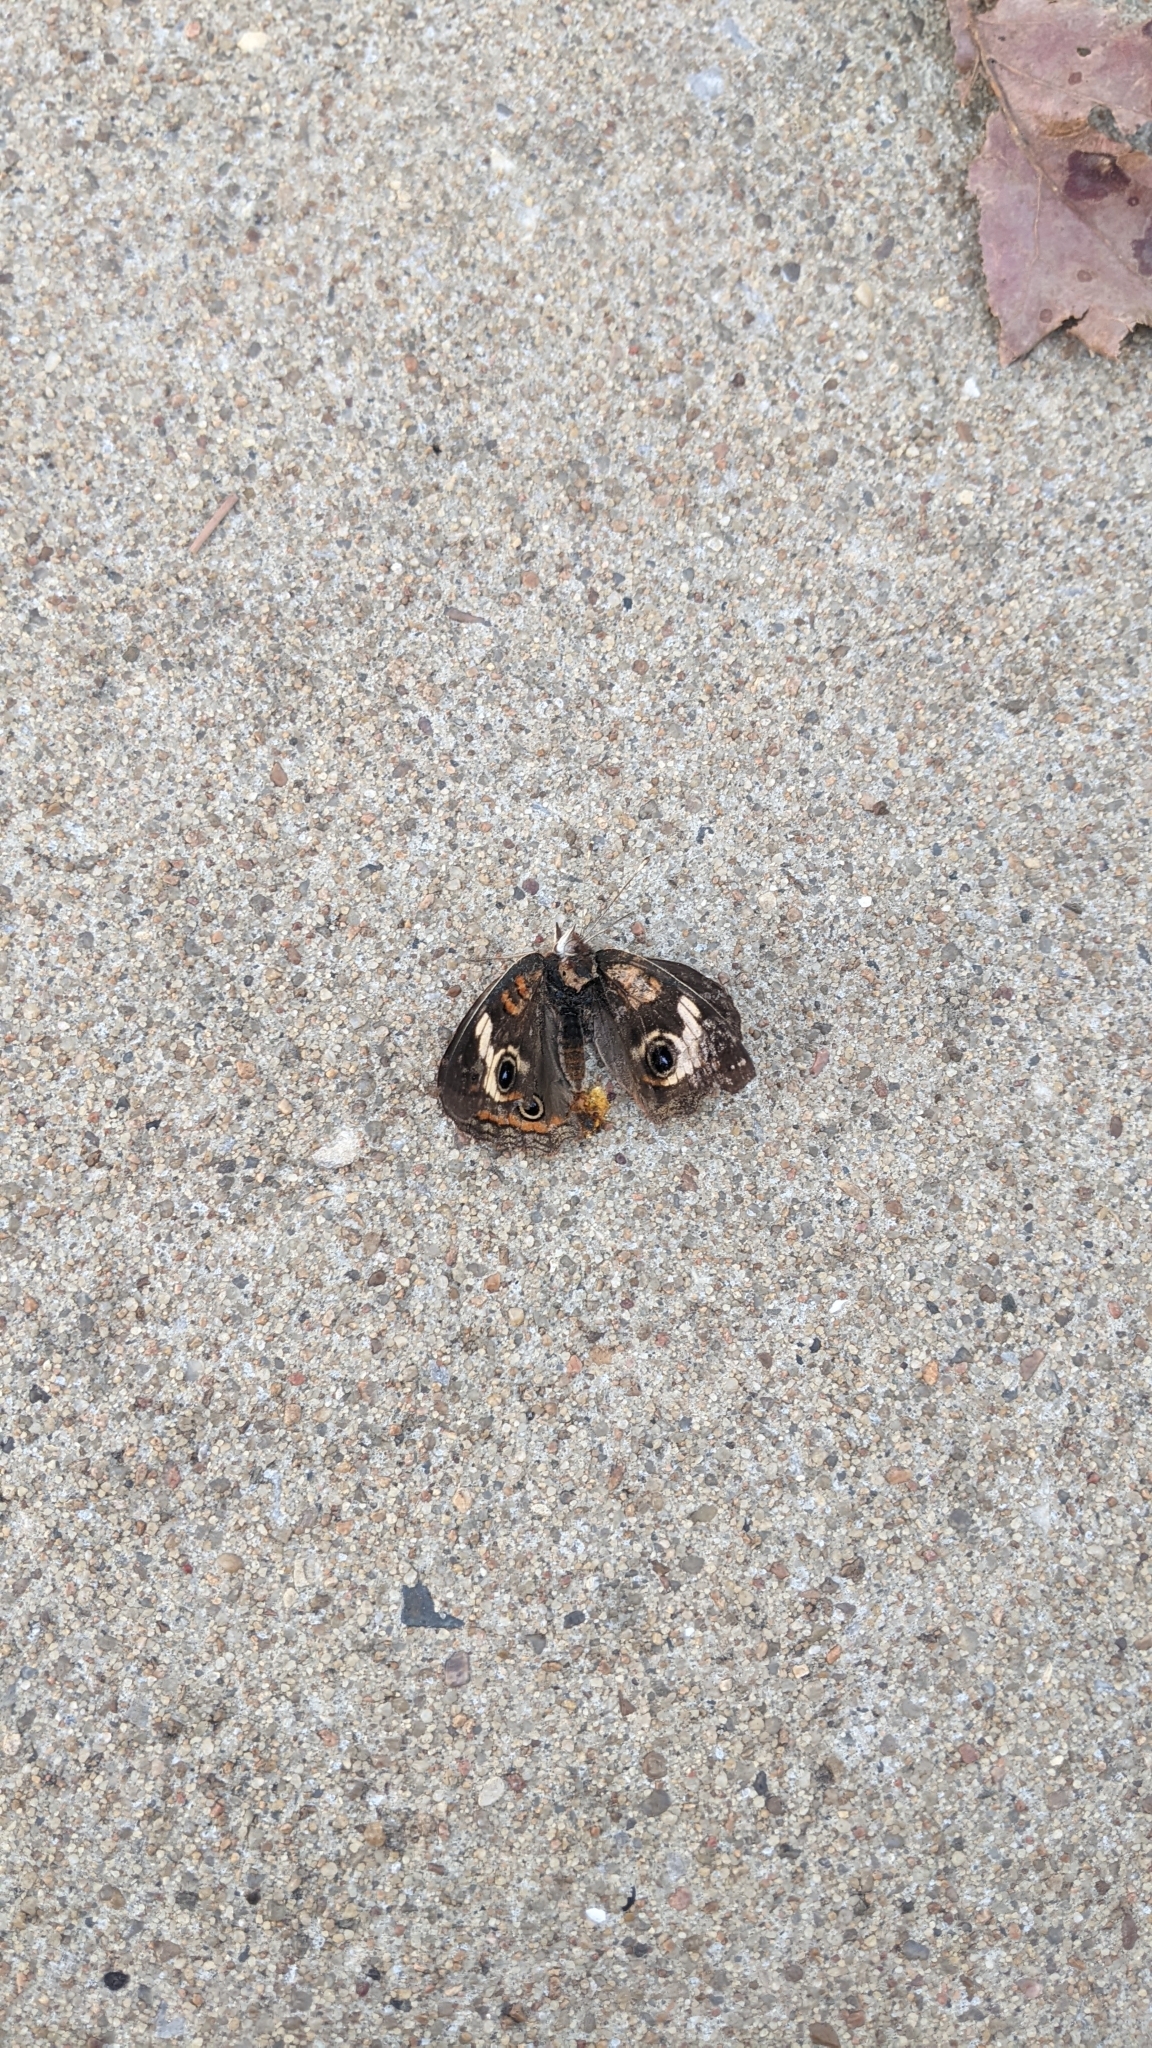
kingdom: Animalia
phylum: Arthropoda
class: Insecta
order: Lepidoptera
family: Nymphalidae
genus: Junonia
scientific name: Junonia coenia
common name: Common buckeye
